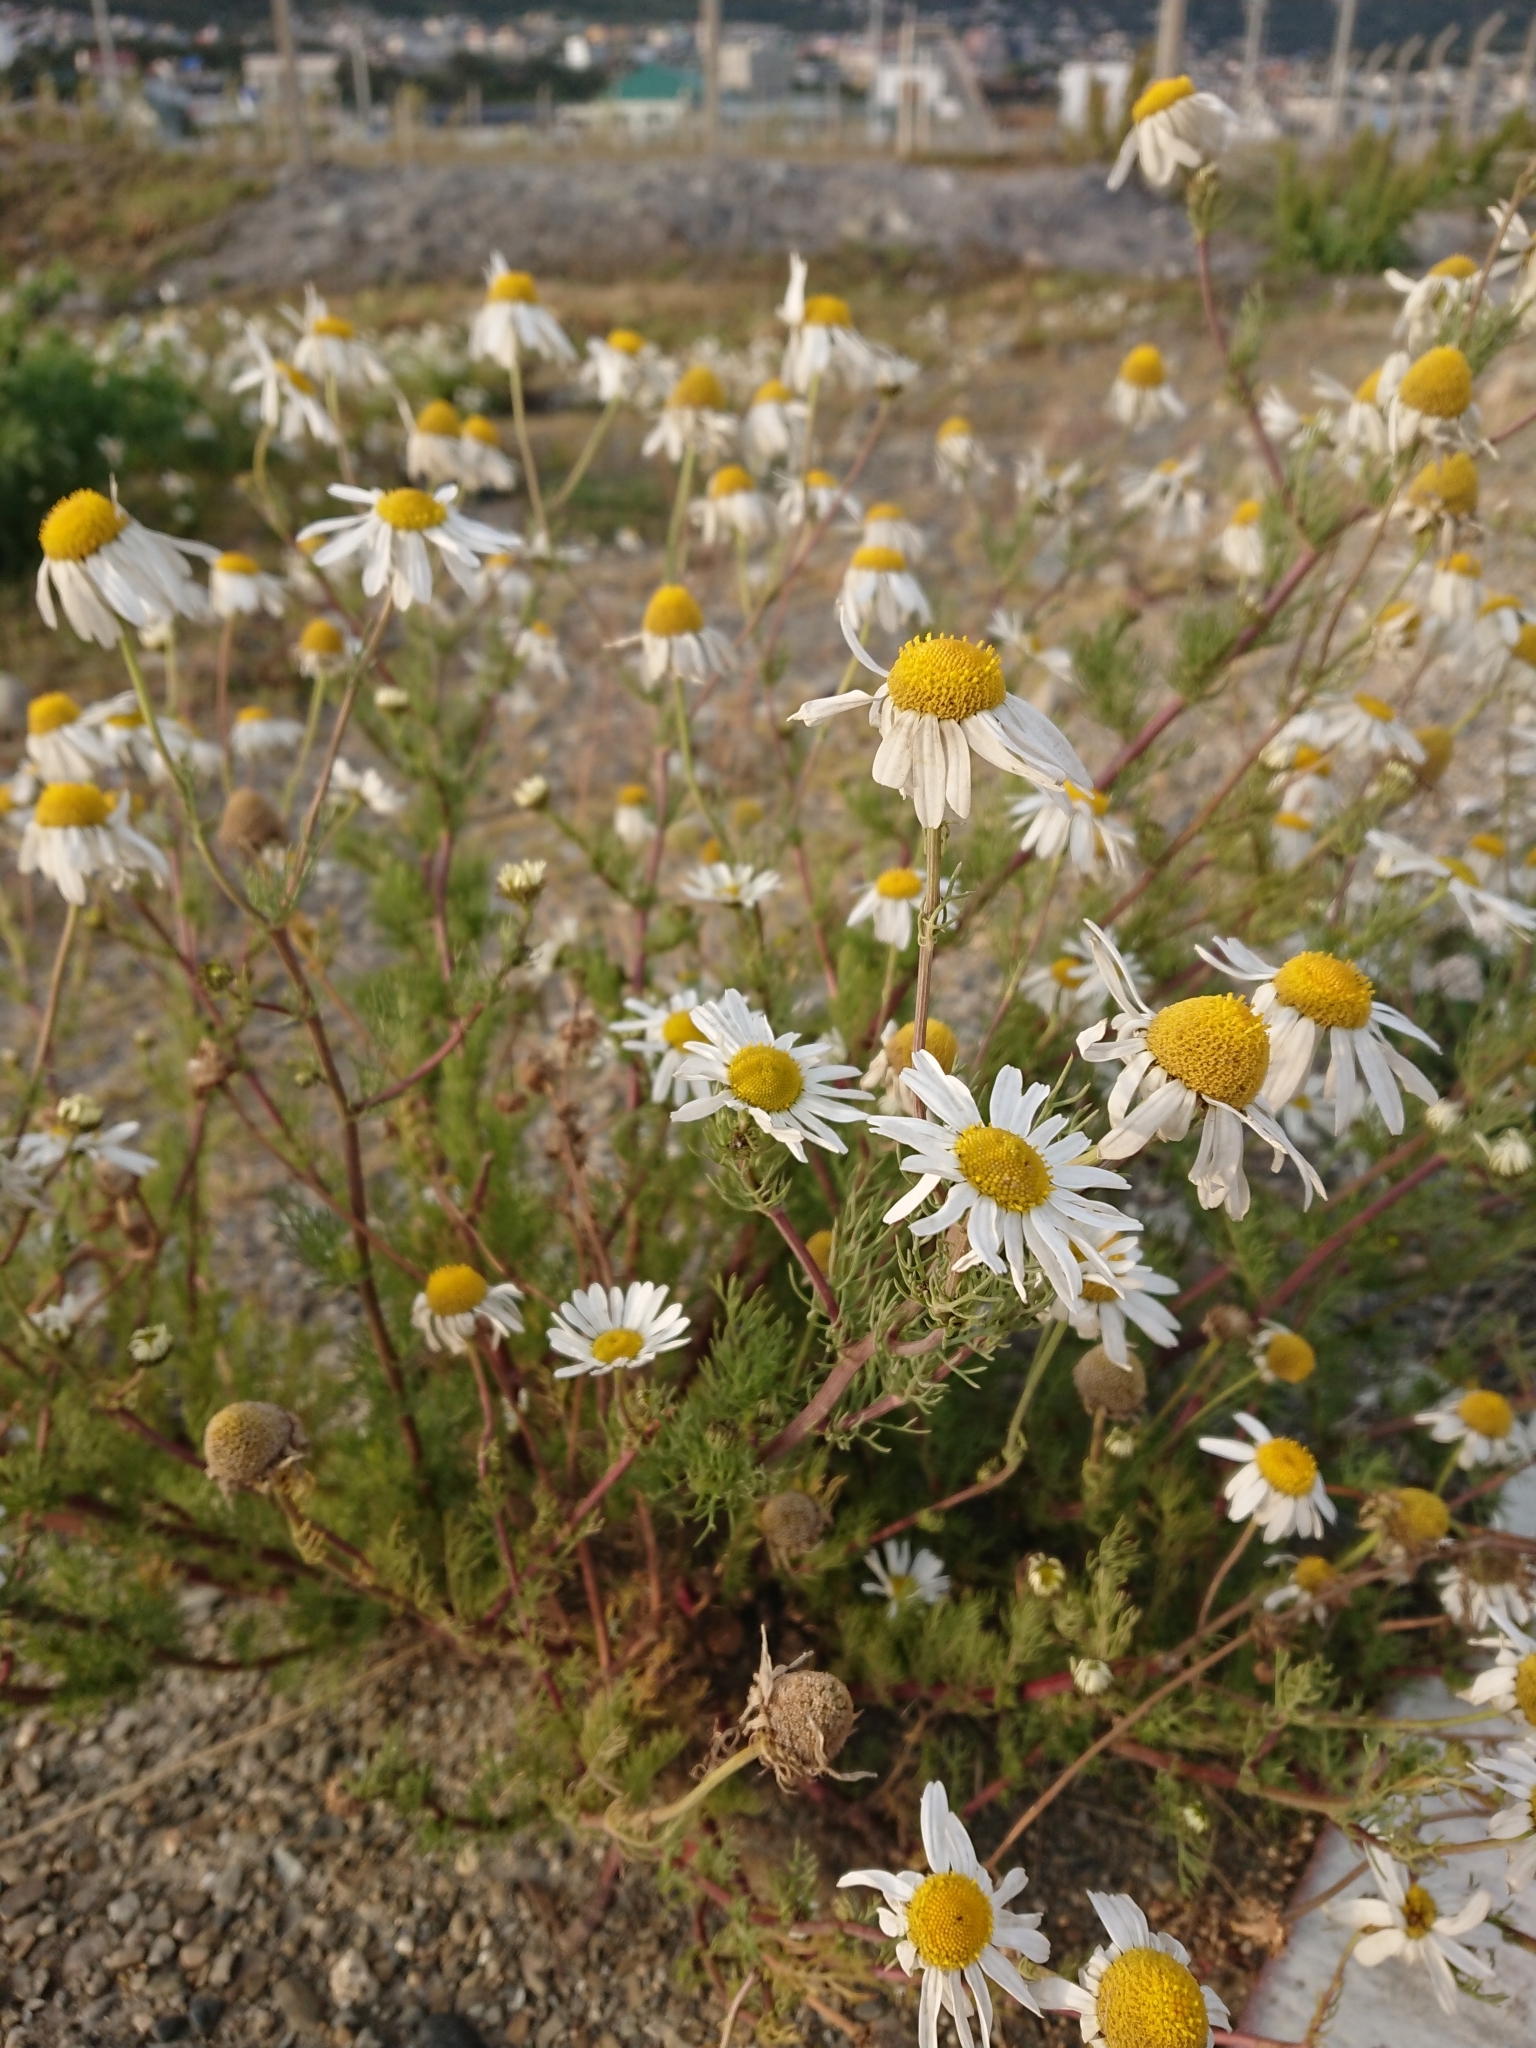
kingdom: Plantae
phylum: Tracheophyta
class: Magnoliopsida
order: Asterales
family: Asteraceae
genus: Tripleurospermum
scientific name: Tripleurospermum inodorum
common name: Scentless mayweed
